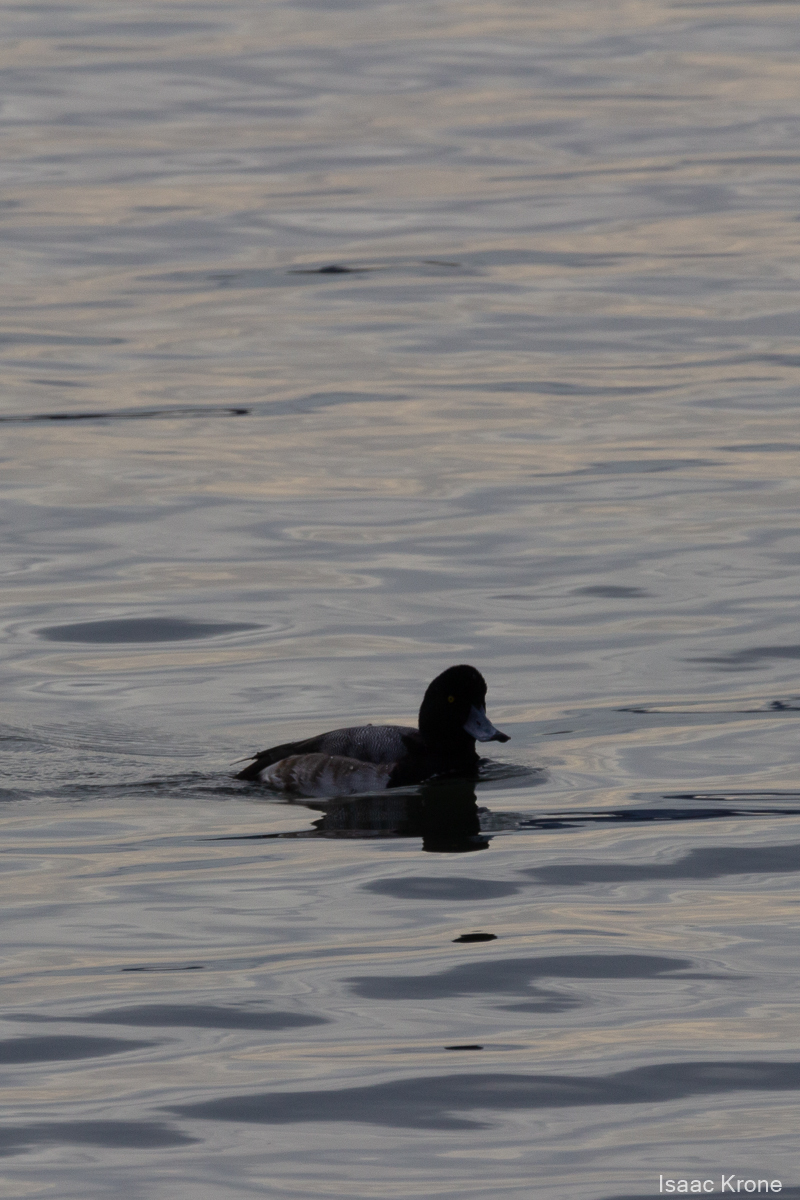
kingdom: Animalia
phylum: Chordata
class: Aves
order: Anseriformes
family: Anatidae
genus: Aythya
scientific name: Aythya marila
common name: Greater scaup
